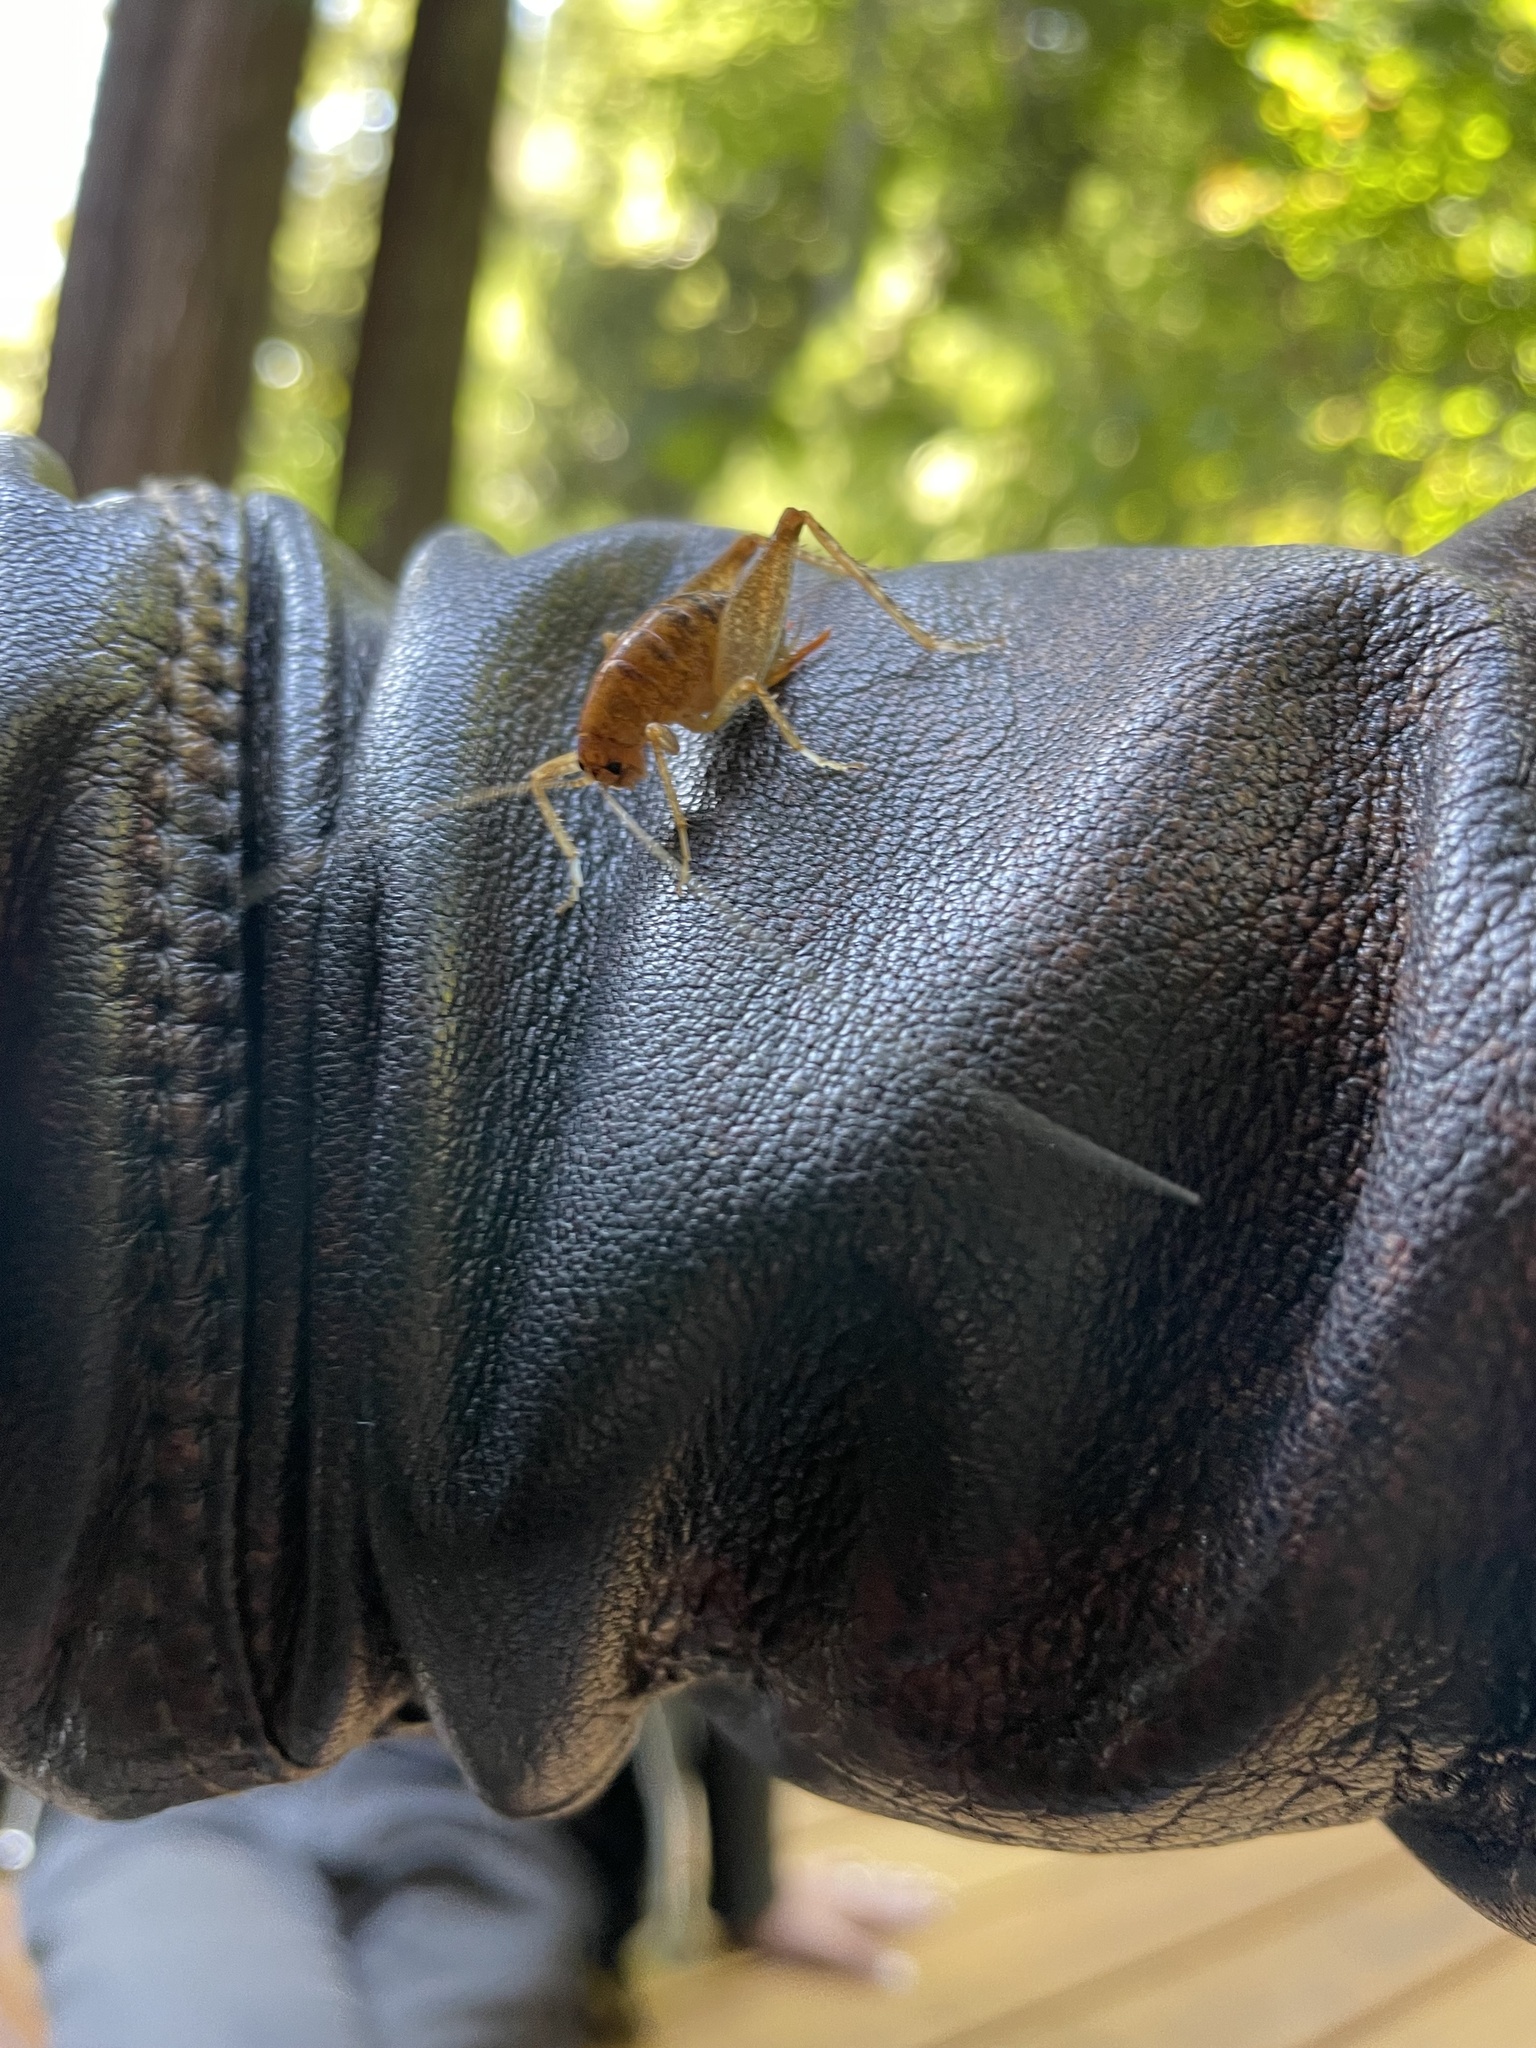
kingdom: Animalia
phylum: Arthropoda
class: Insecta
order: Orthoptera
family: Rhaphidophoridae
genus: Ceuthophilus
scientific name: Ceuthophilus californianus
